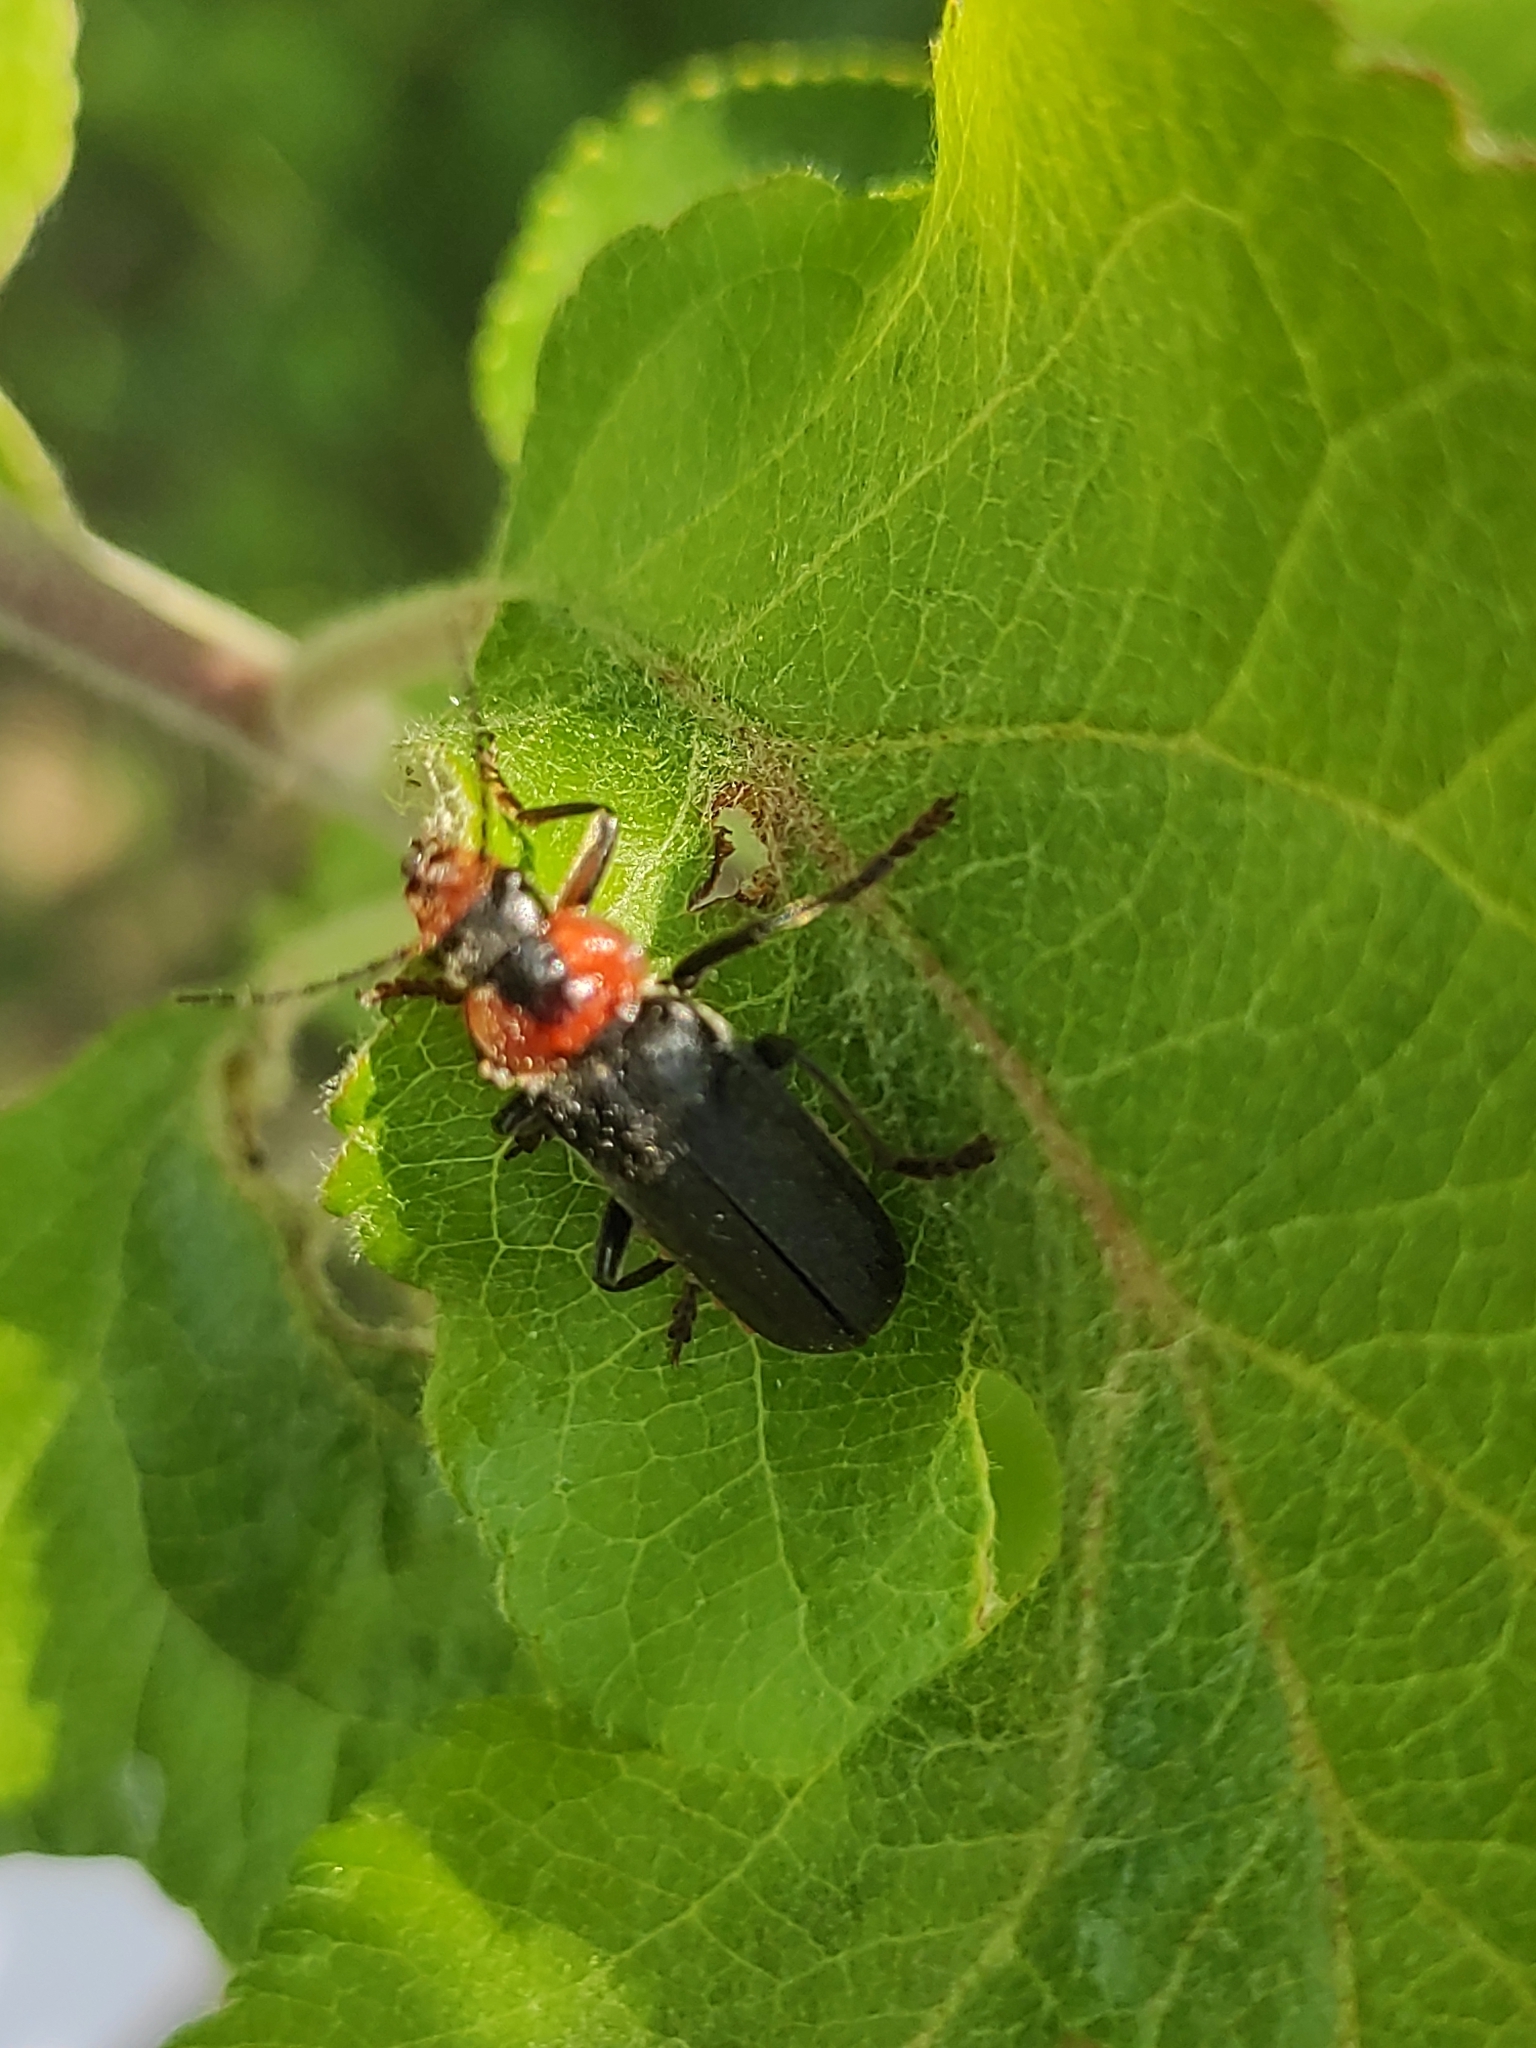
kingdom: Animalia
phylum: Arthropoda
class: Insecta
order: Coleoptera
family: Cantharidae
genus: Cantharis
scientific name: Cantharis fusca
